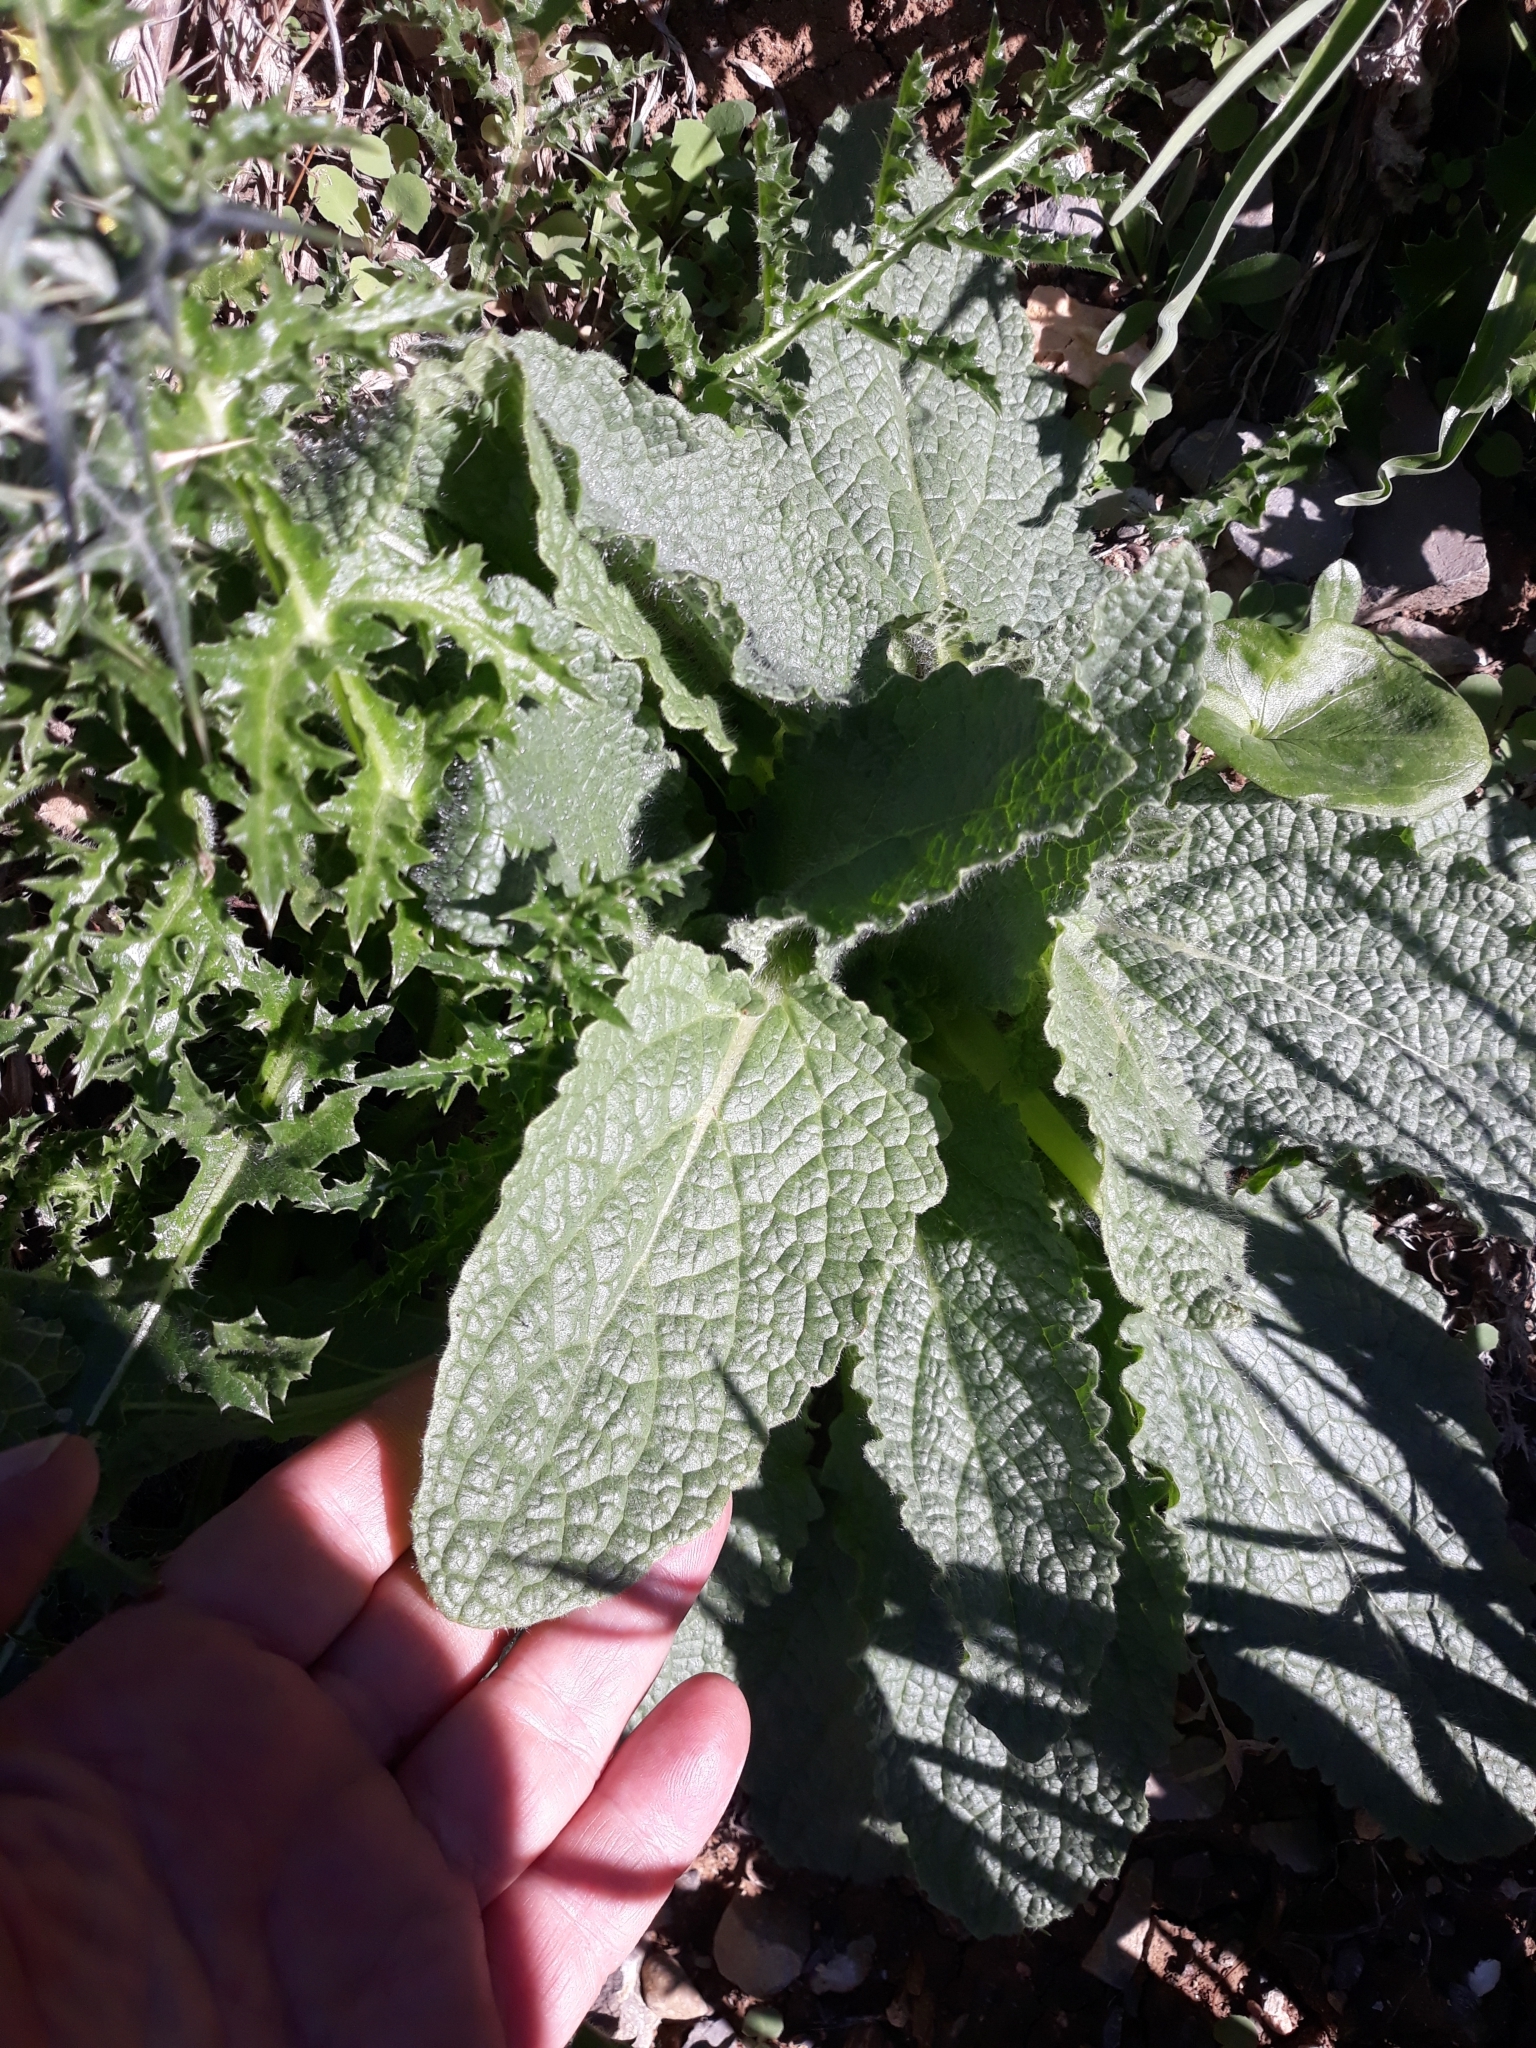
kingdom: Plantae
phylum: Tracheophyta
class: Magnoliopsida
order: Boraginales
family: Boraginaceae
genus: Borago
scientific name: Borago officinalis
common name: Borage
